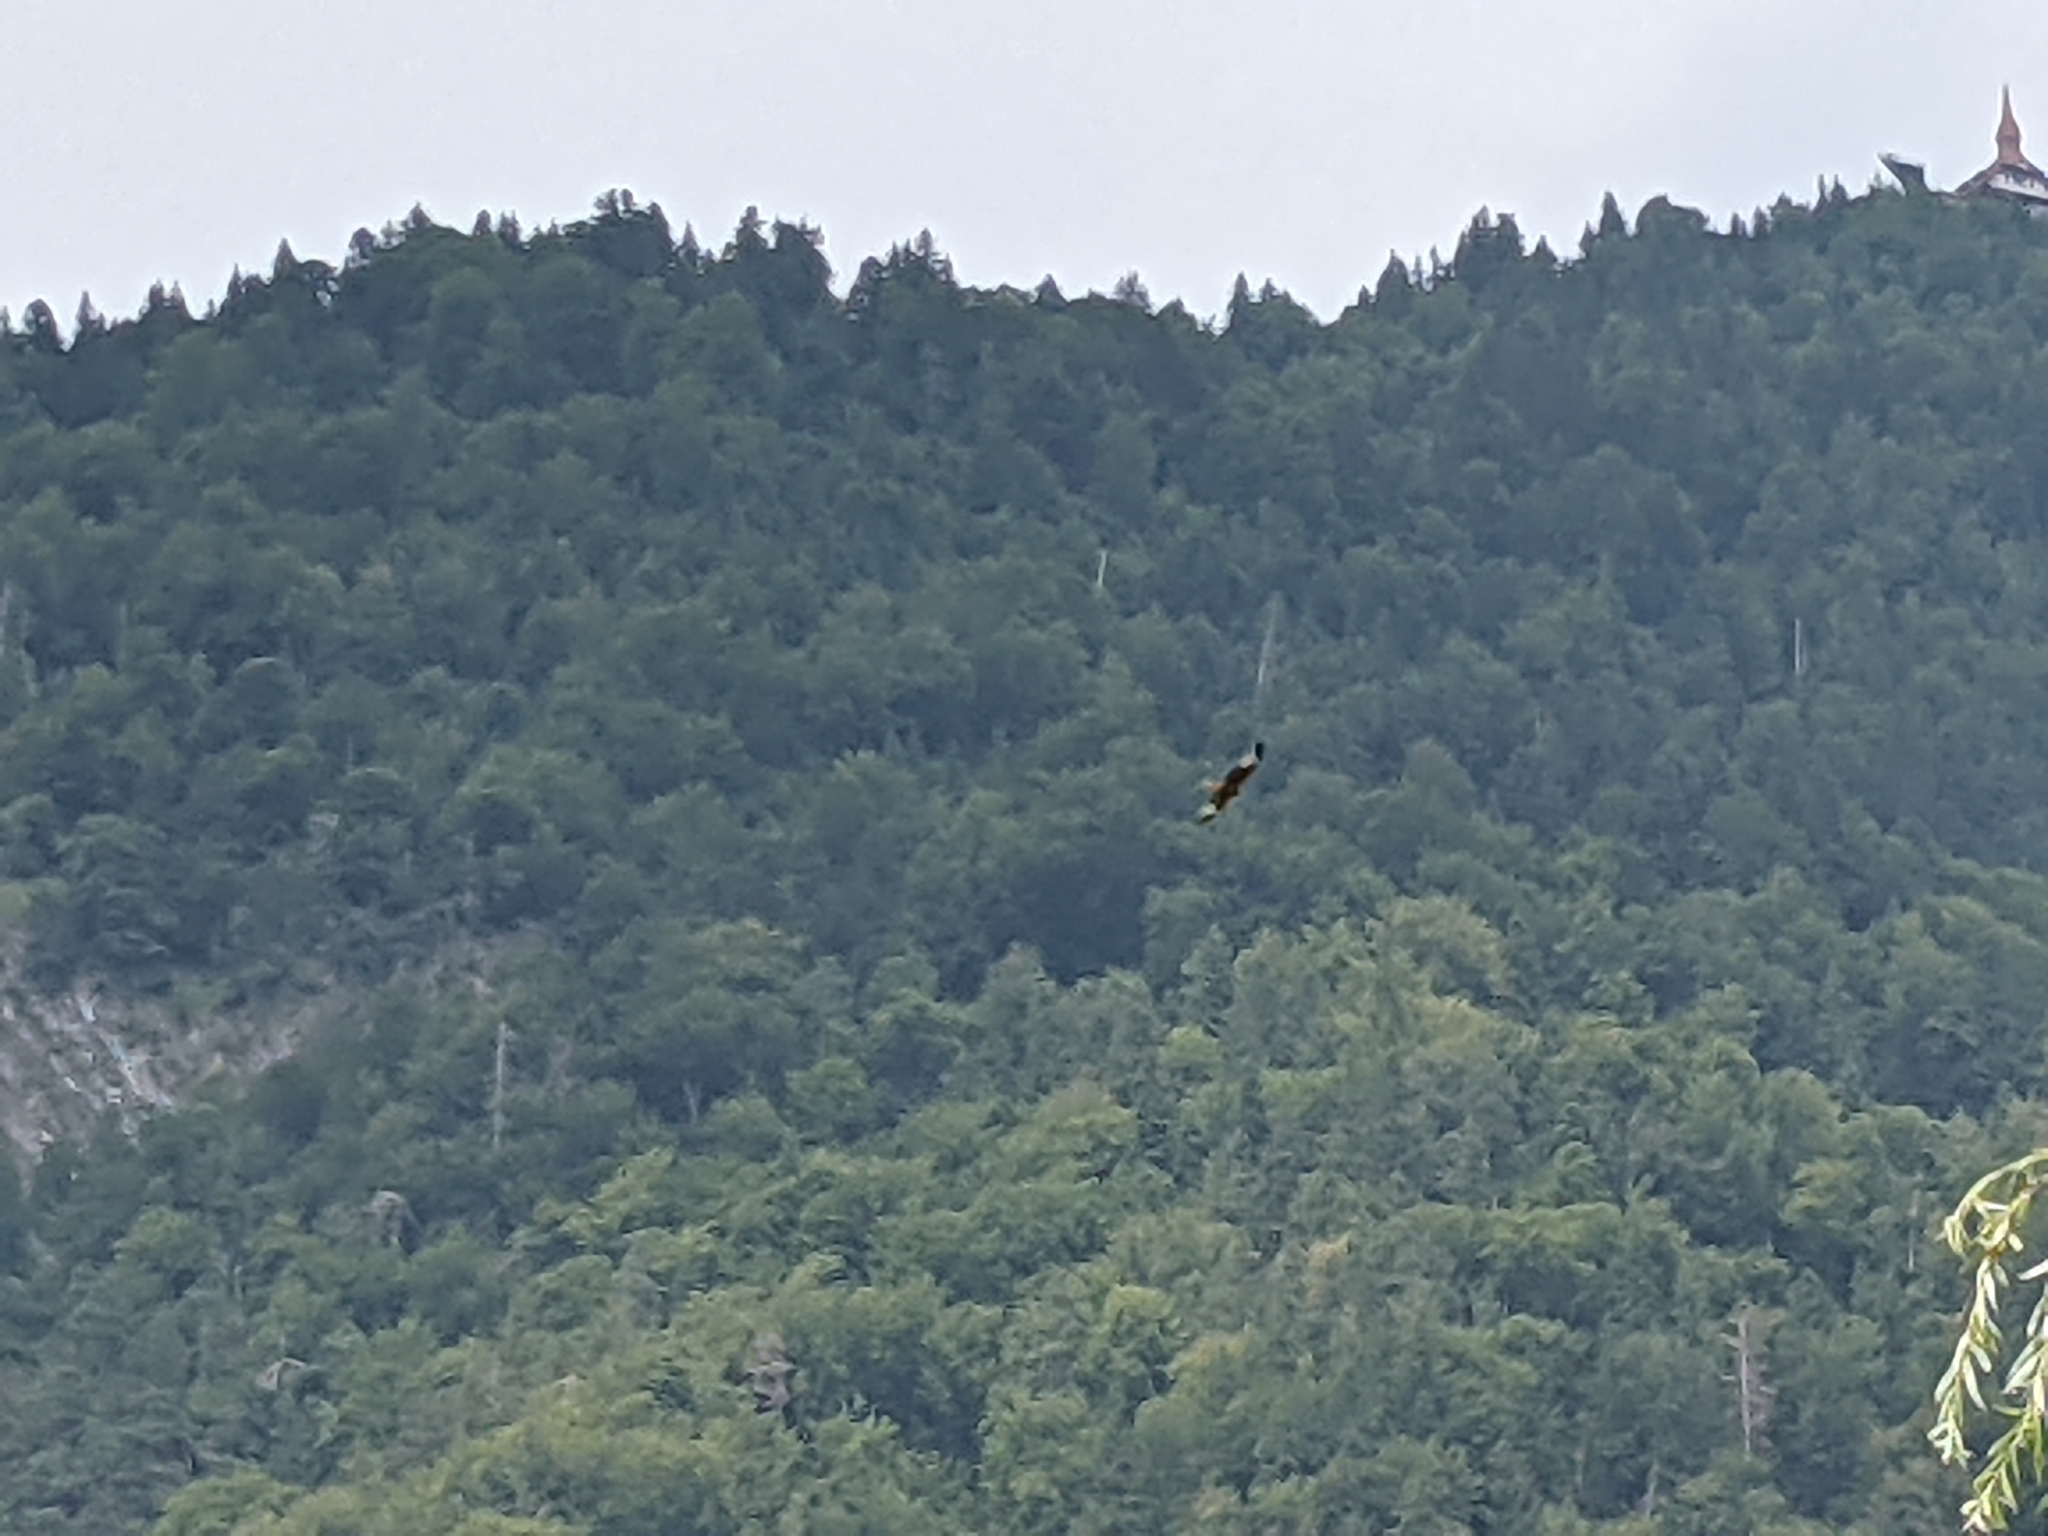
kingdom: Animalia
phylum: Chordata
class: Aves
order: Accipitriformes
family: Accipitridae
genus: Milvus
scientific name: Milvus milvus
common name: Red kite
